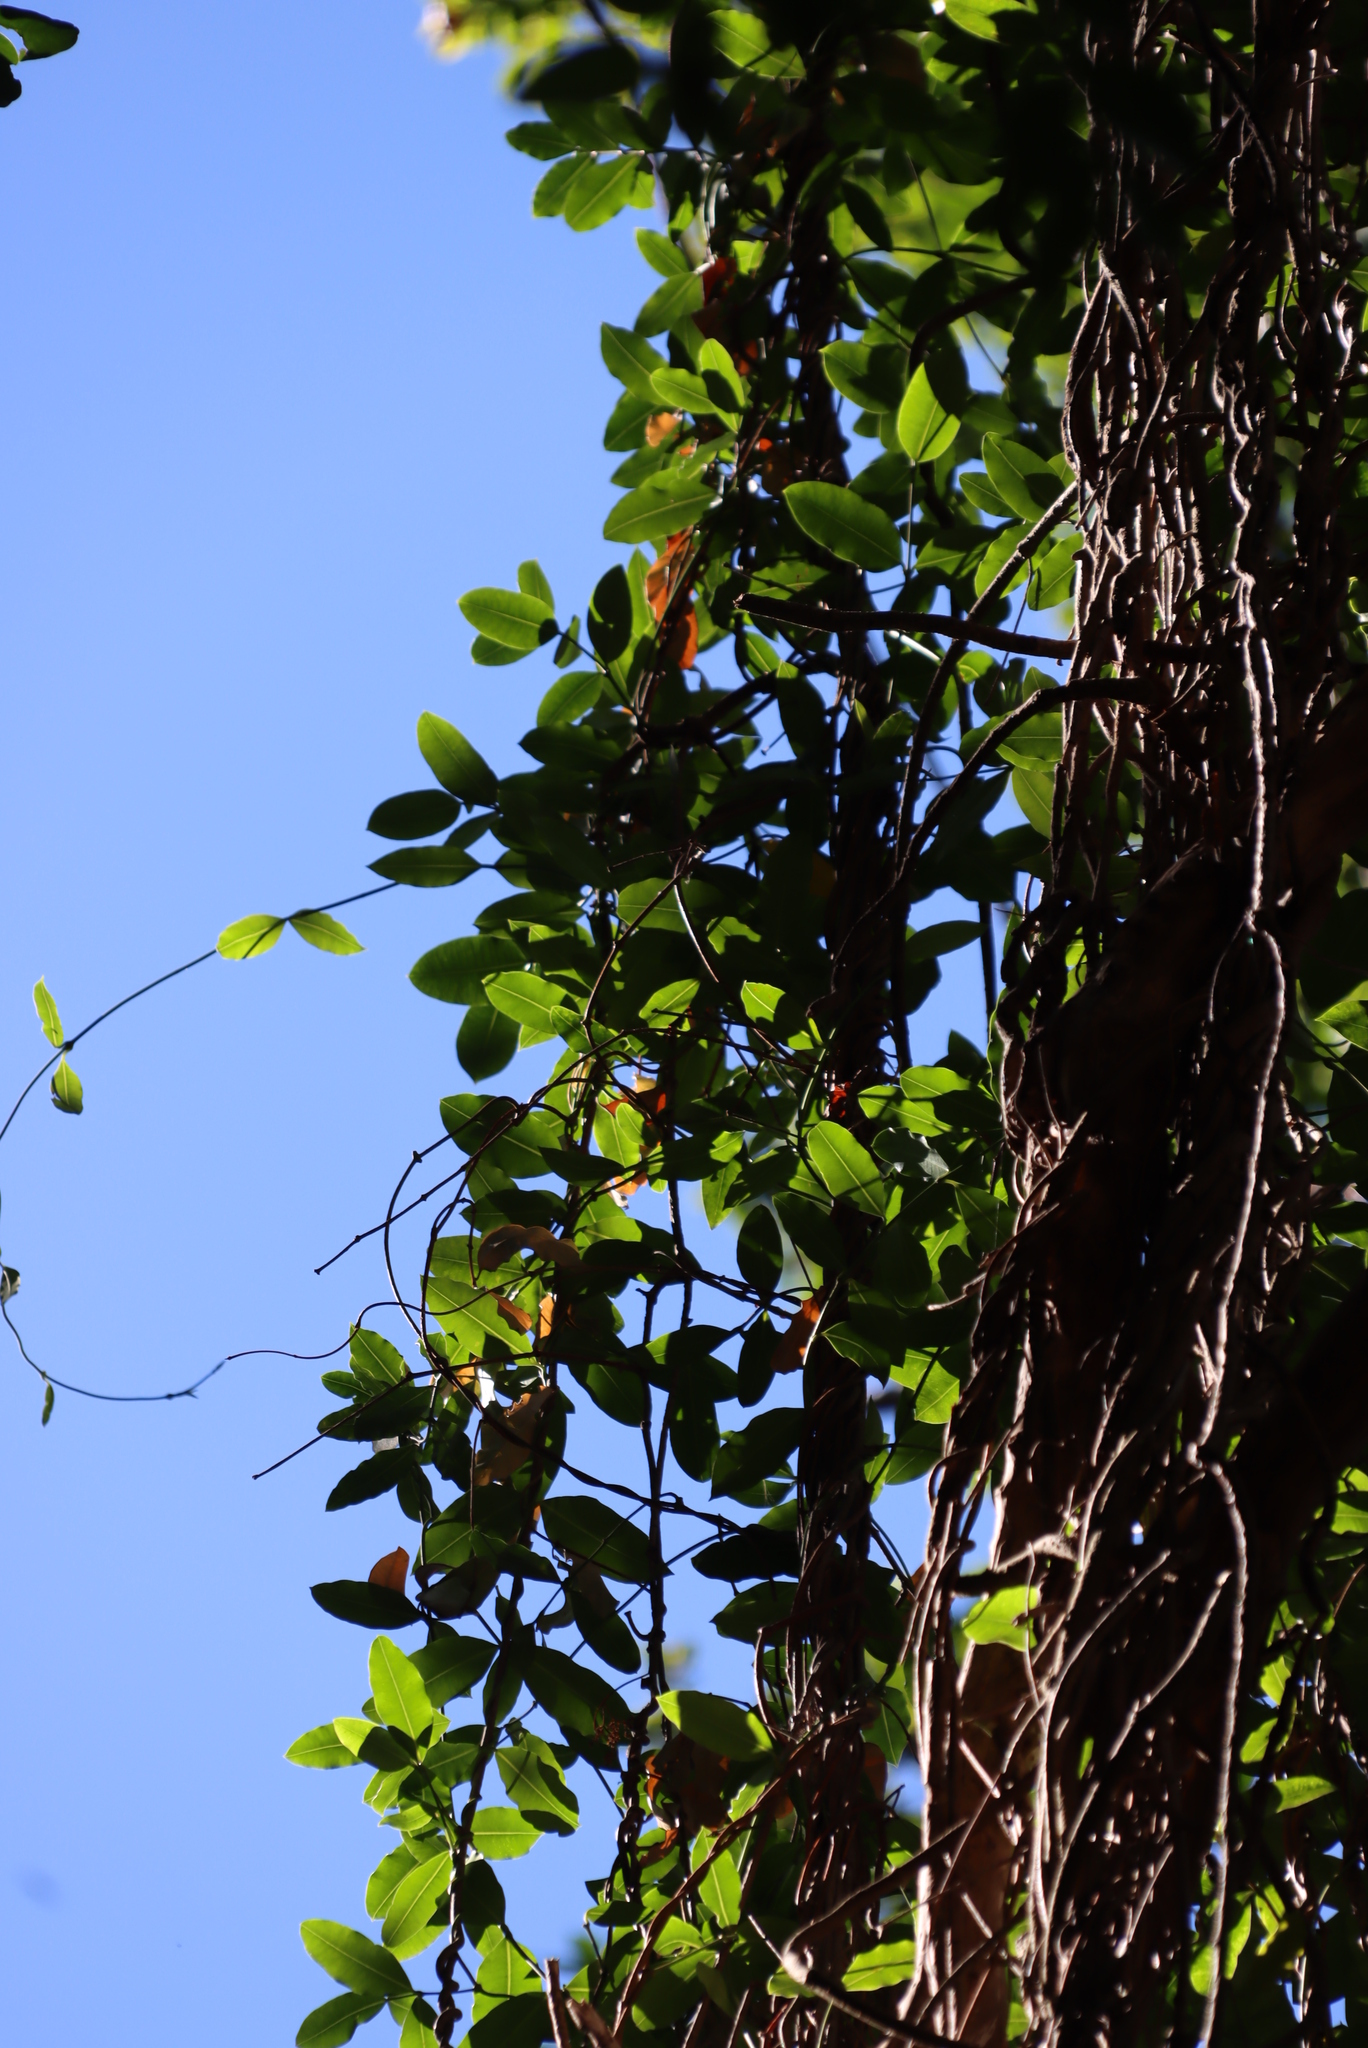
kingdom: Plantae
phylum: Tracheophyta
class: Magnoliopsida
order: Gentianales
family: Apocynaceae
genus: Secamone
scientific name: Secamone alpini
